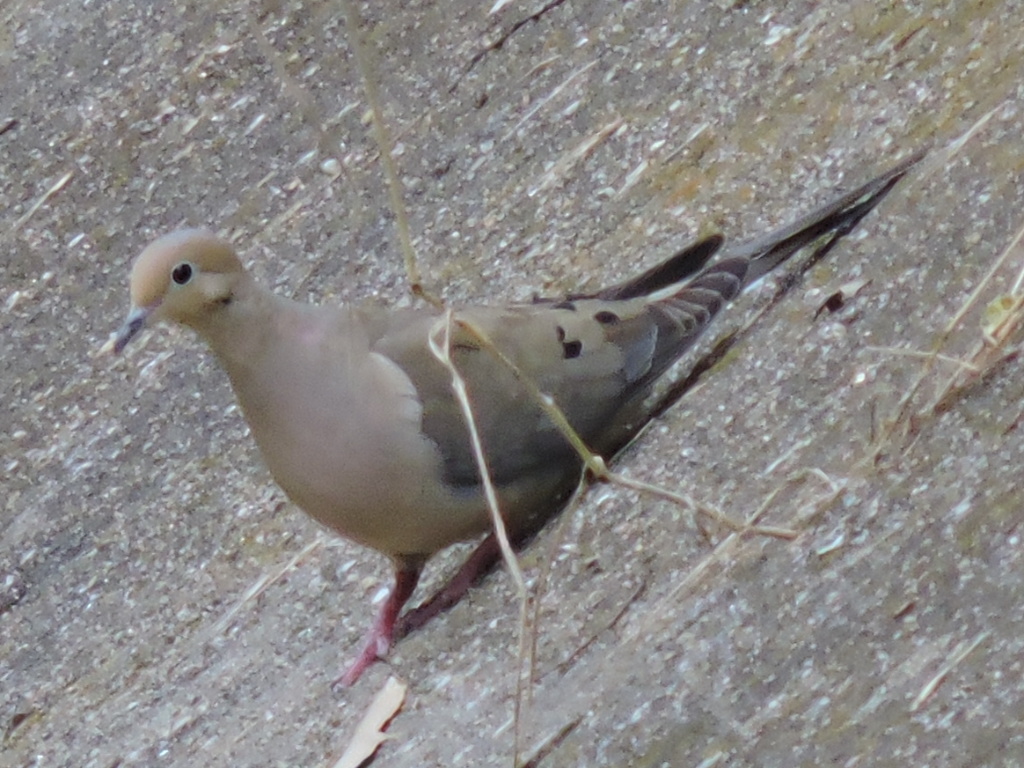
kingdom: Animalia
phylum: Chordata
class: Aves
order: Columbiformes
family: Columbidae
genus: Zenaida
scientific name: Zenaida macroura
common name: Mourning dove
